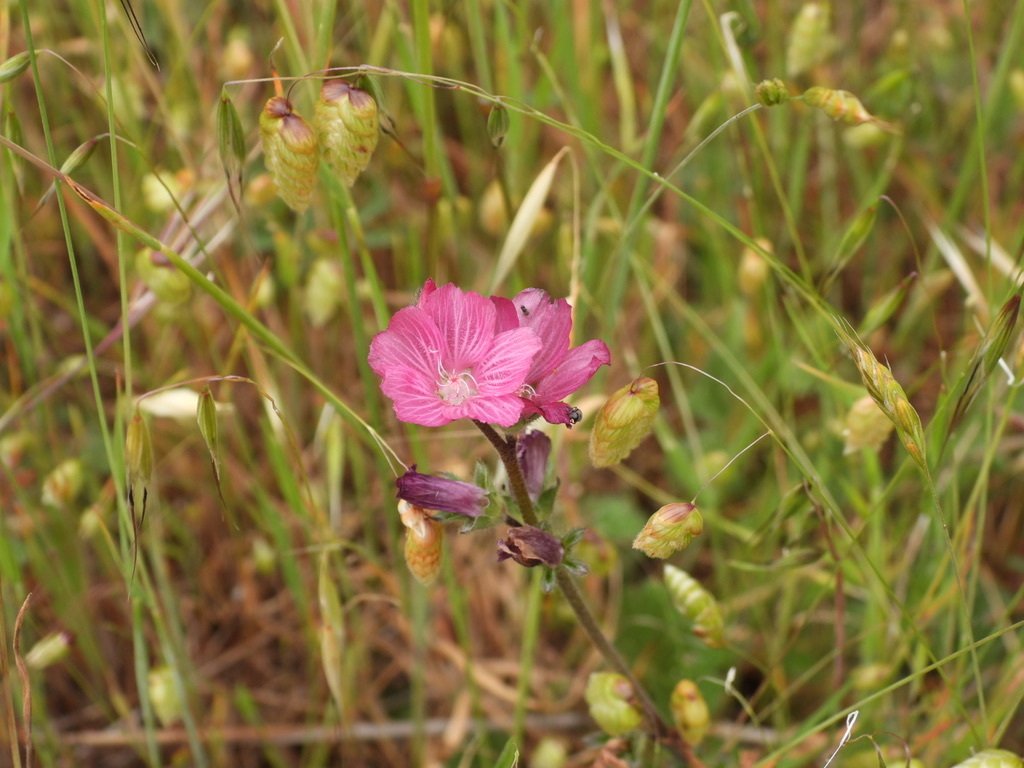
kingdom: Plantae
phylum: Tracheophyta
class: Liliopsida
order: Poales
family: Poaceae
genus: Briza
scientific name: Briza maxima
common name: Big quakinggrass
